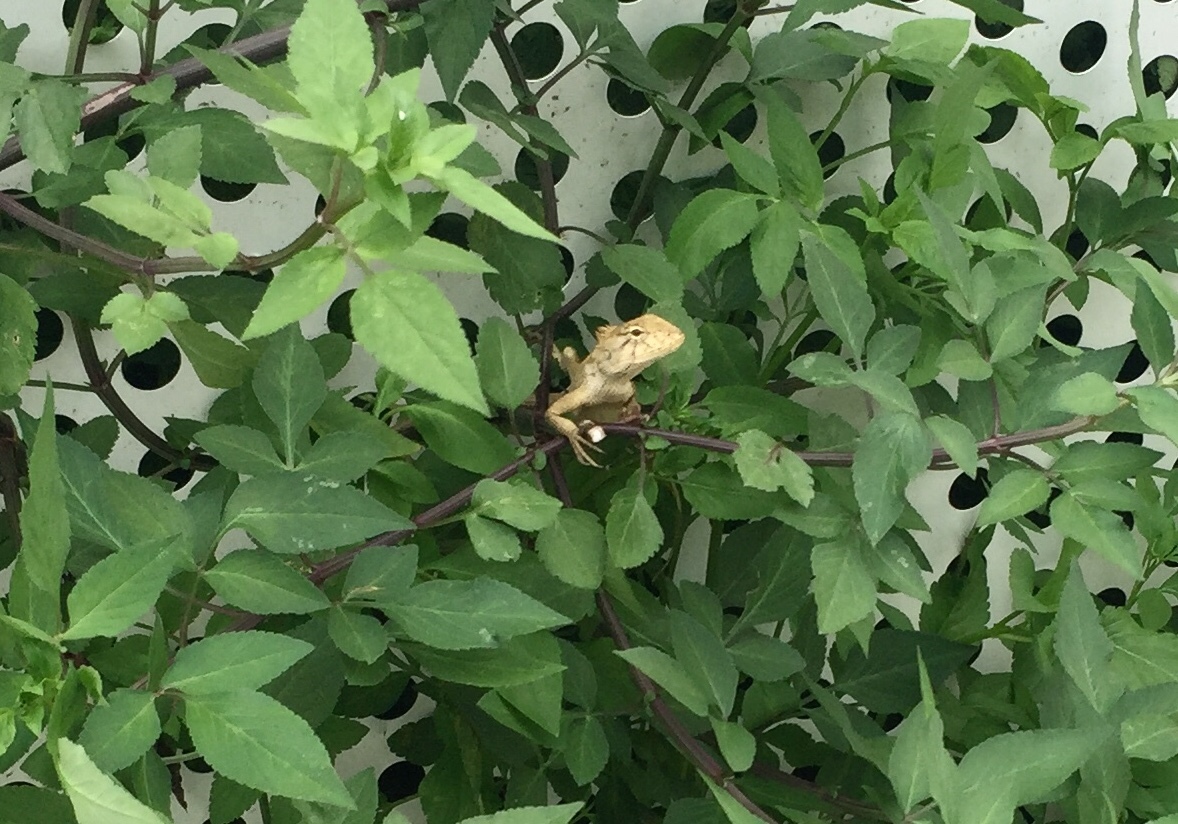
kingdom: Animalia
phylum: Chordata
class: Squamata
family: Agamidae
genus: Calotes
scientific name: Calotes versicolor
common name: Oriental garden lizard
